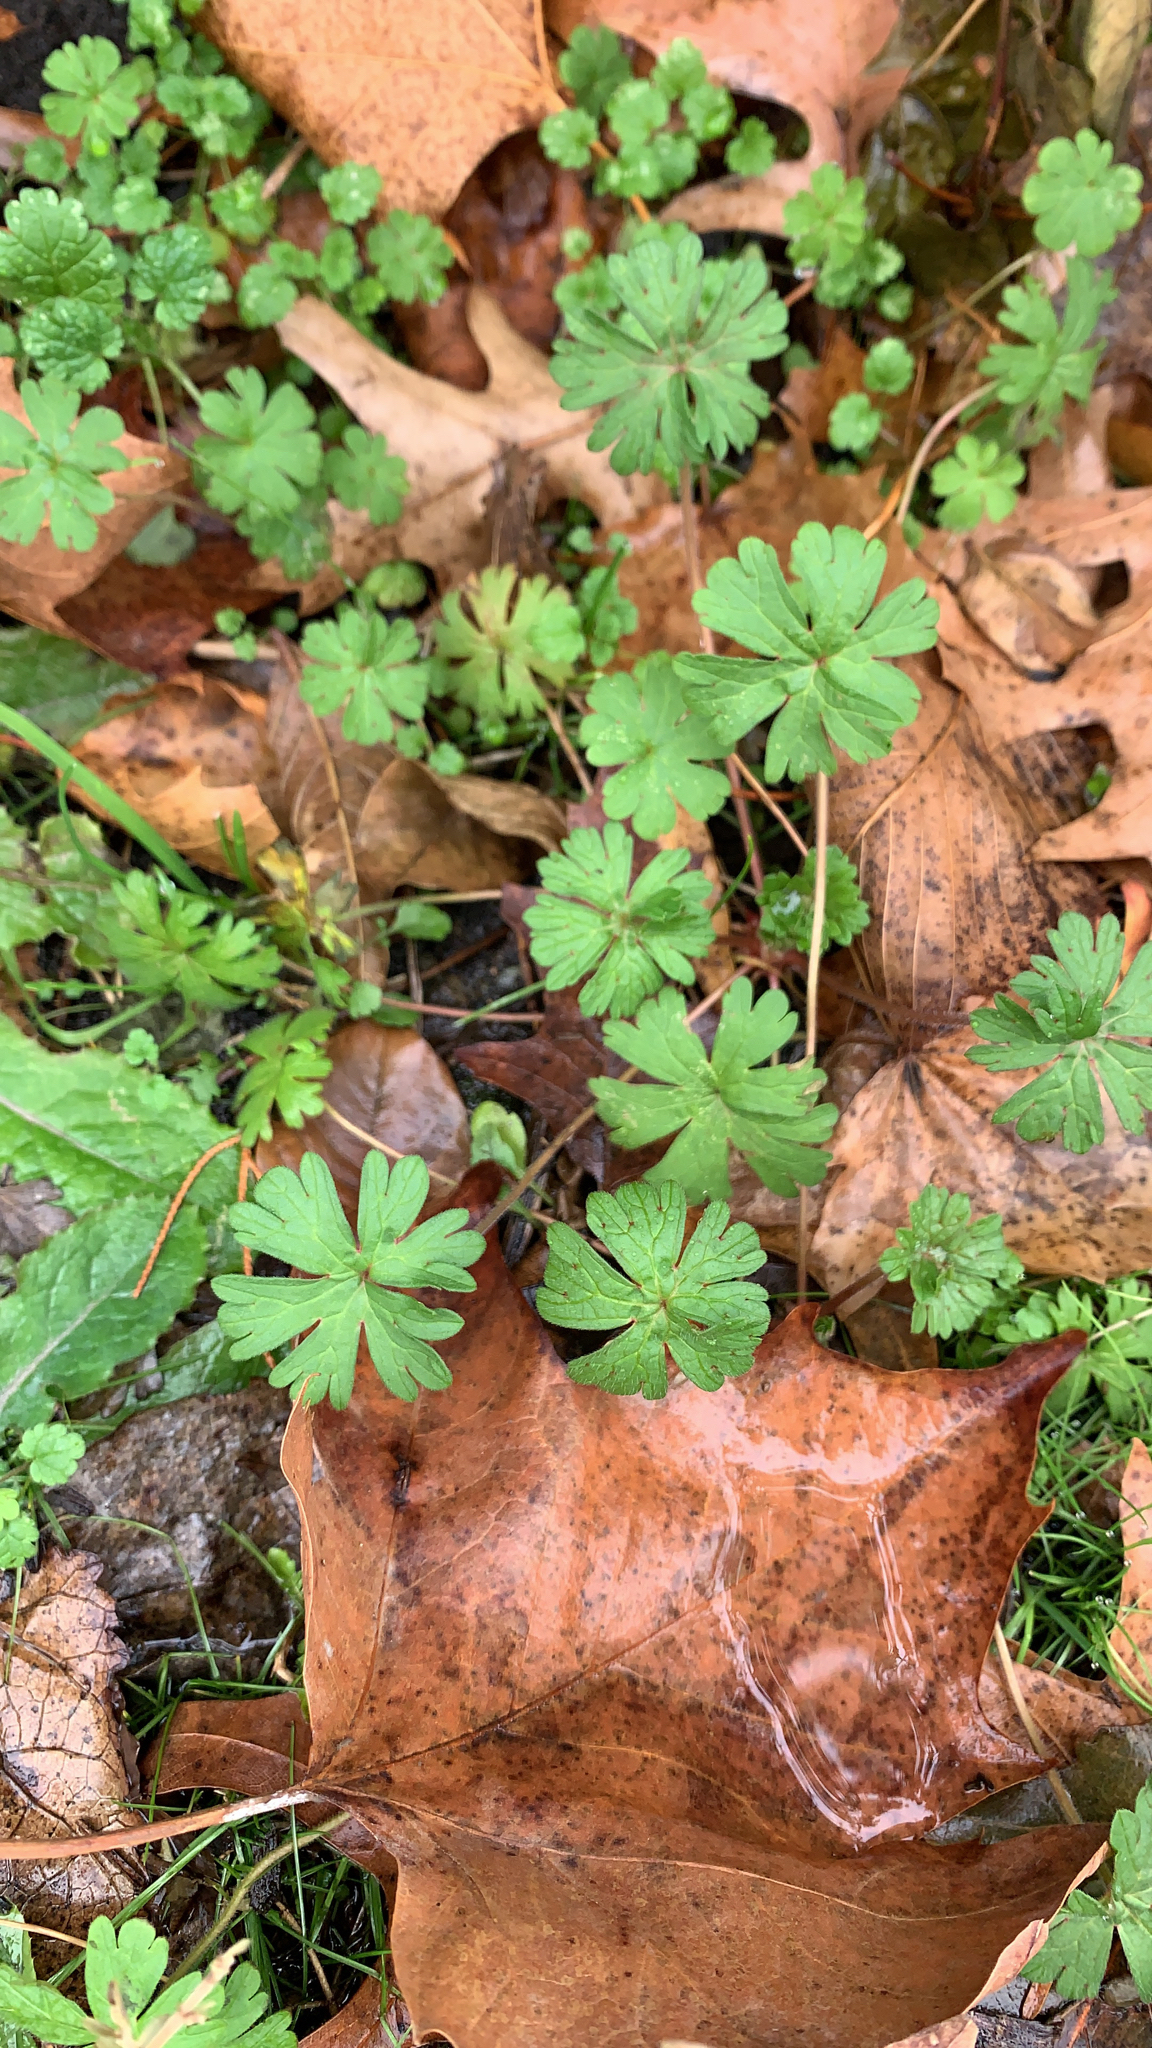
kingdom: Plantae
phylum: Tracheophyta
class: Magnoliopsida
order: Geraniales
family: Geraniaceae
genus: Geranium
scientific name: Geranium molle
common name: Dove's-foot crane's-bill
